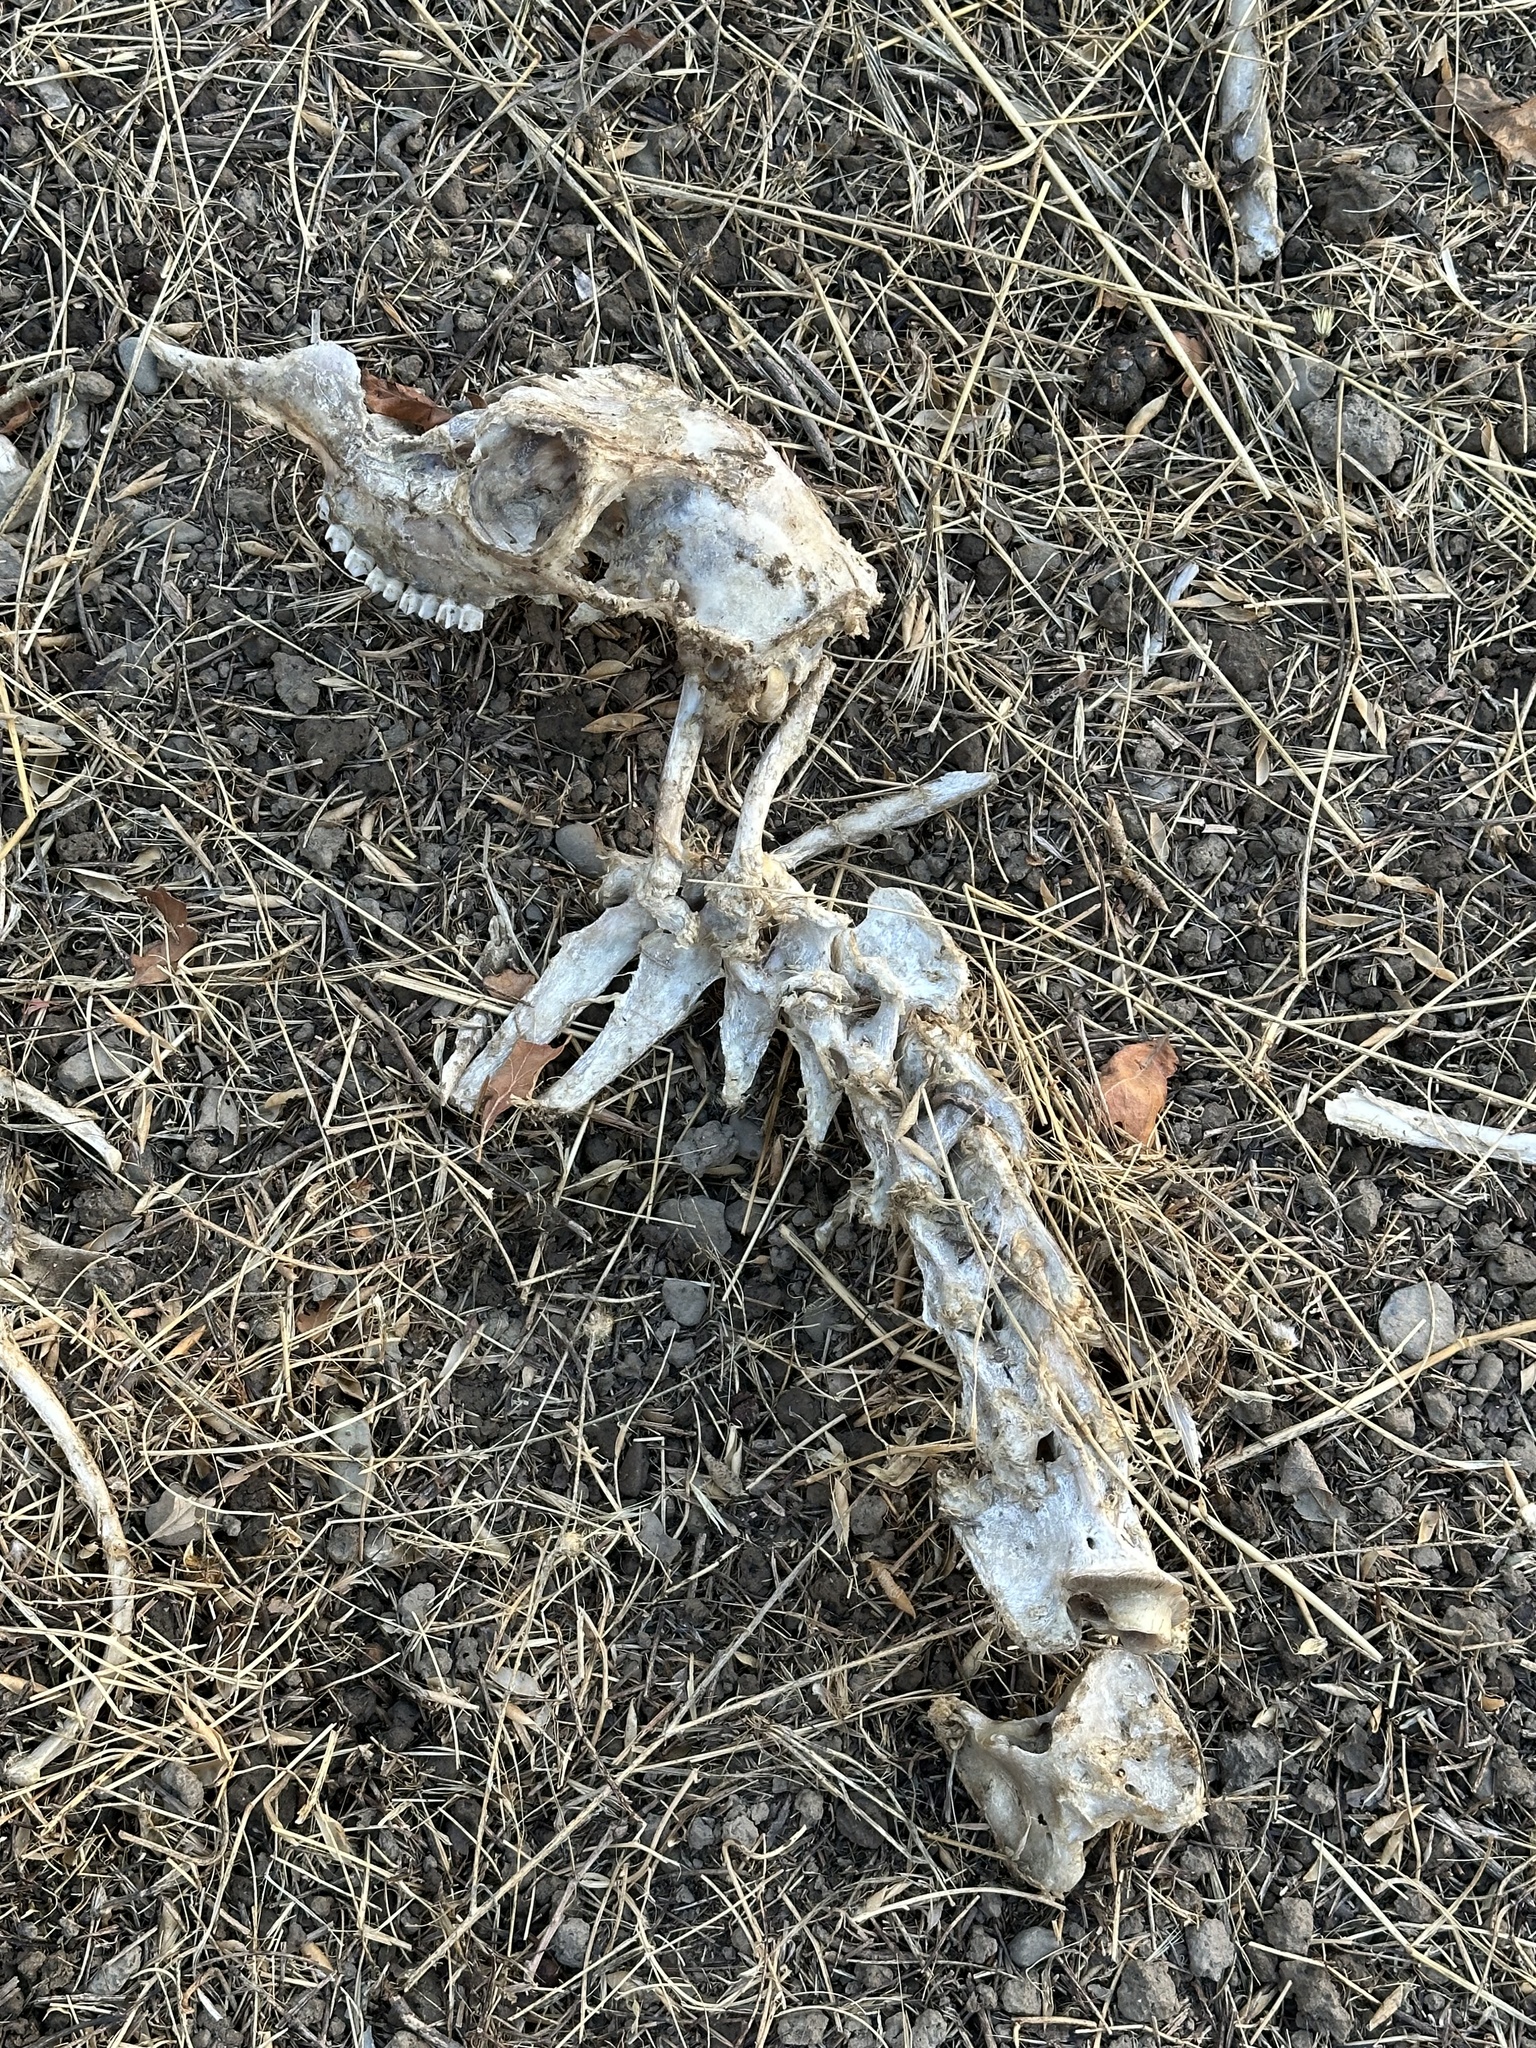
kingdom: Animalia
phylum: Chordata
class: Mammalia
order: Artiodactyla
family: Cervidae
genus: Odocoileus
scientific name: Odocoileus hemionus
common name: Mule deer
